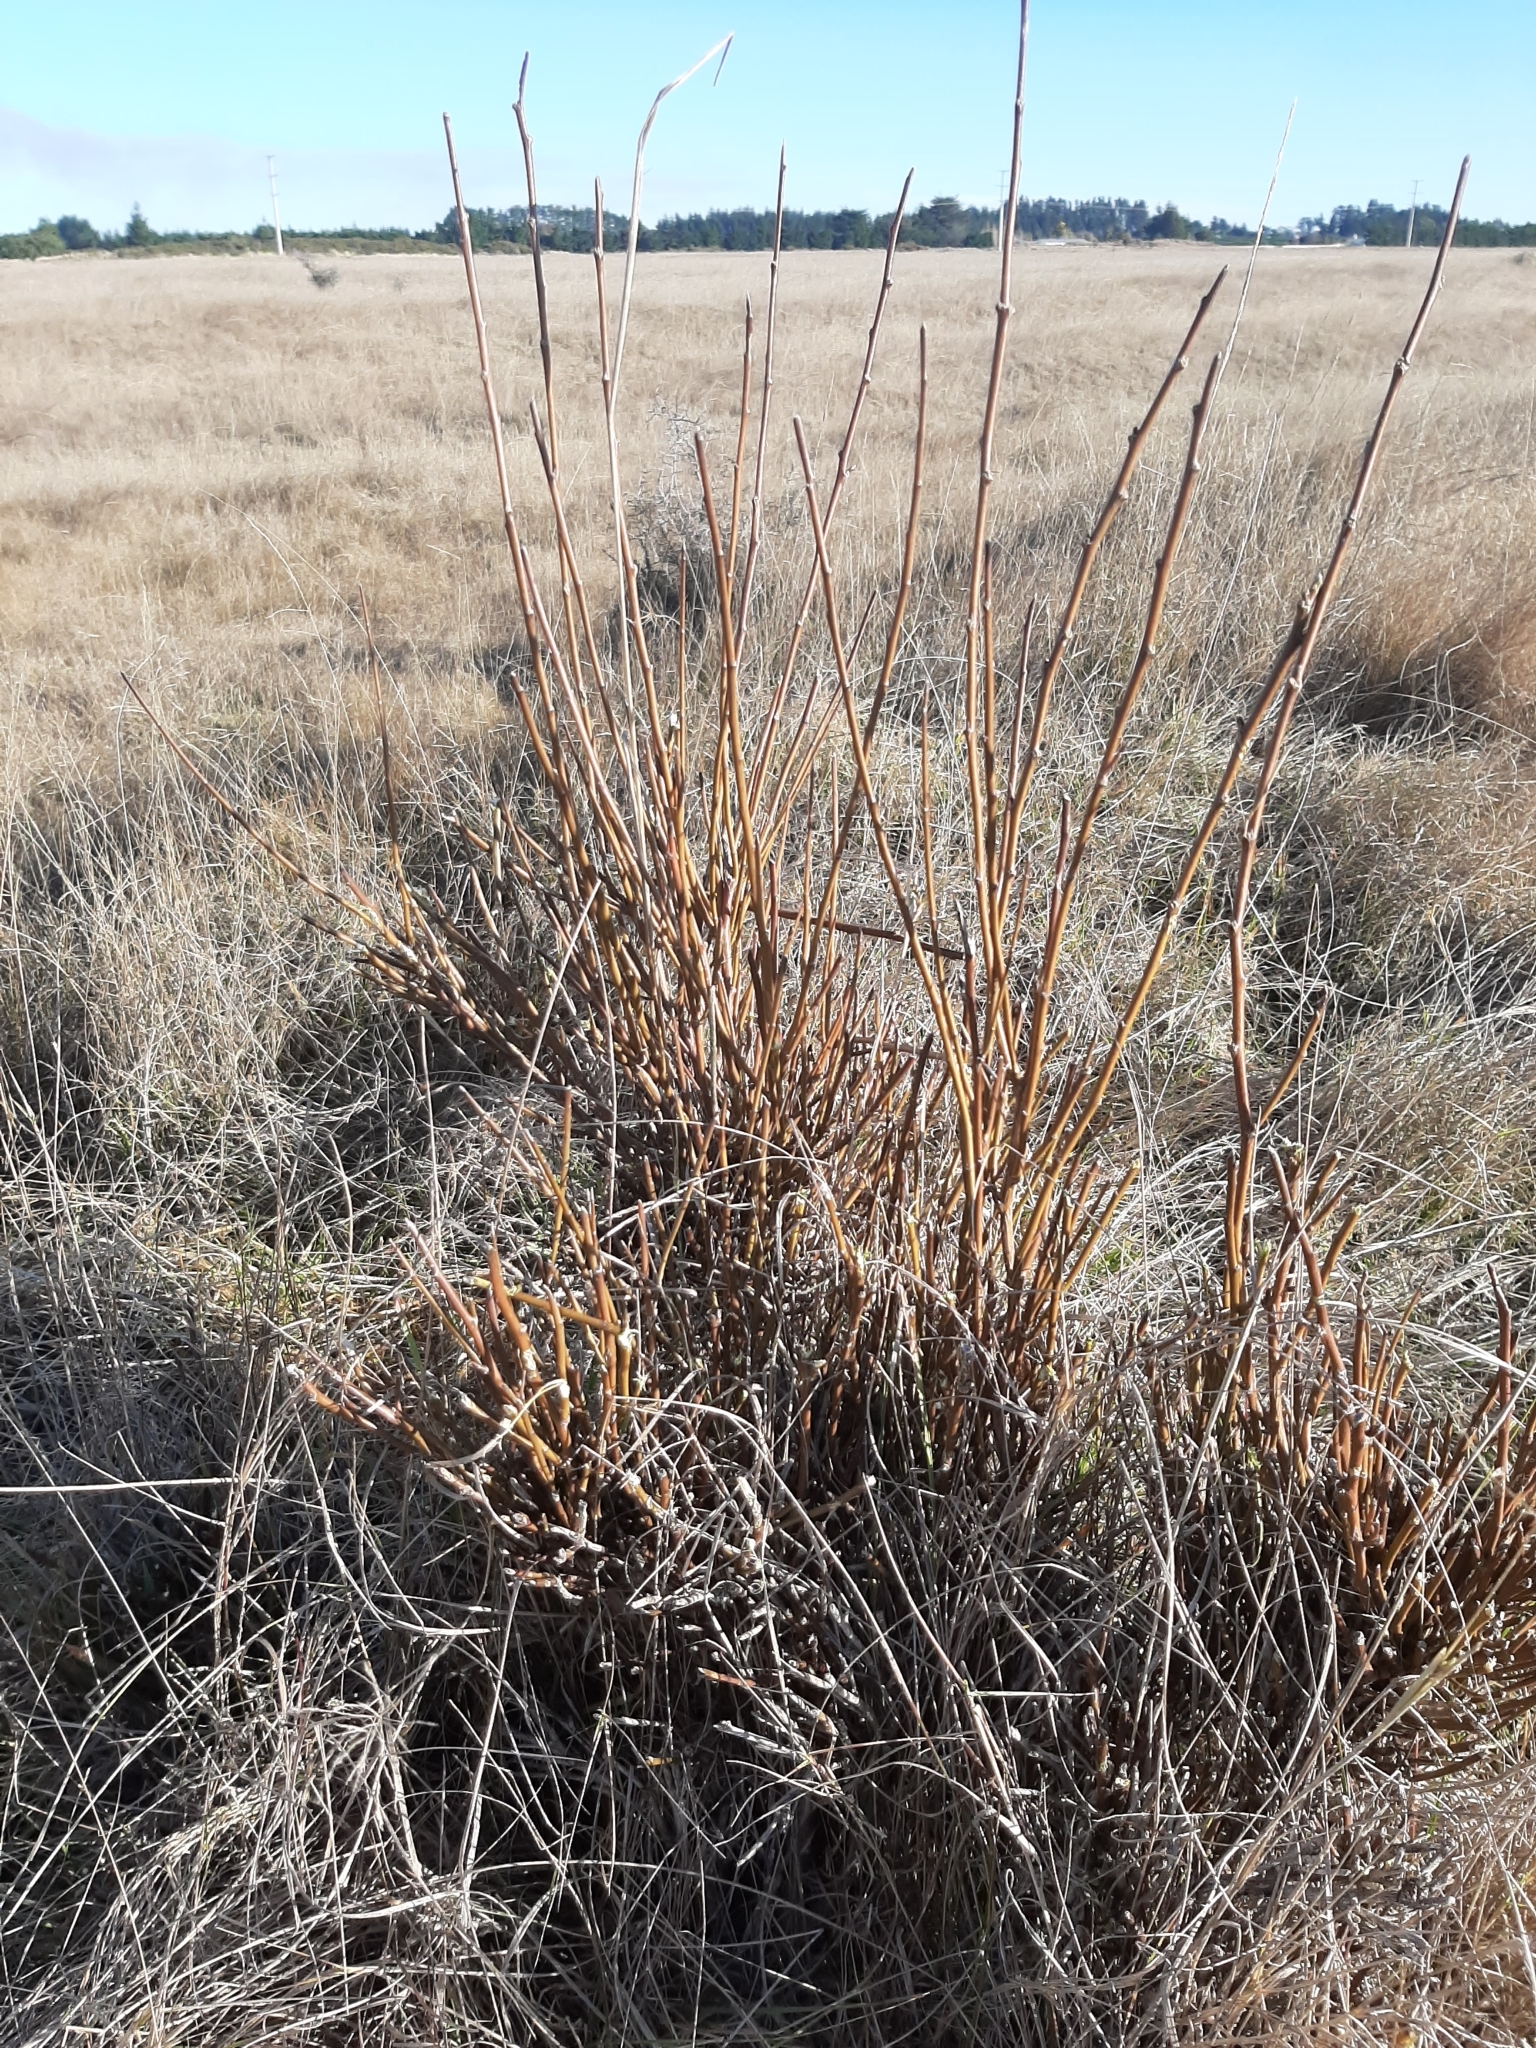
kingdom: Plantae
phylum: Tracheophyta
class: Magnoliopsida
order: Fabales
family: Fabaceae
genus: Carmichaelia
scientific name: Carmichaelia australis
